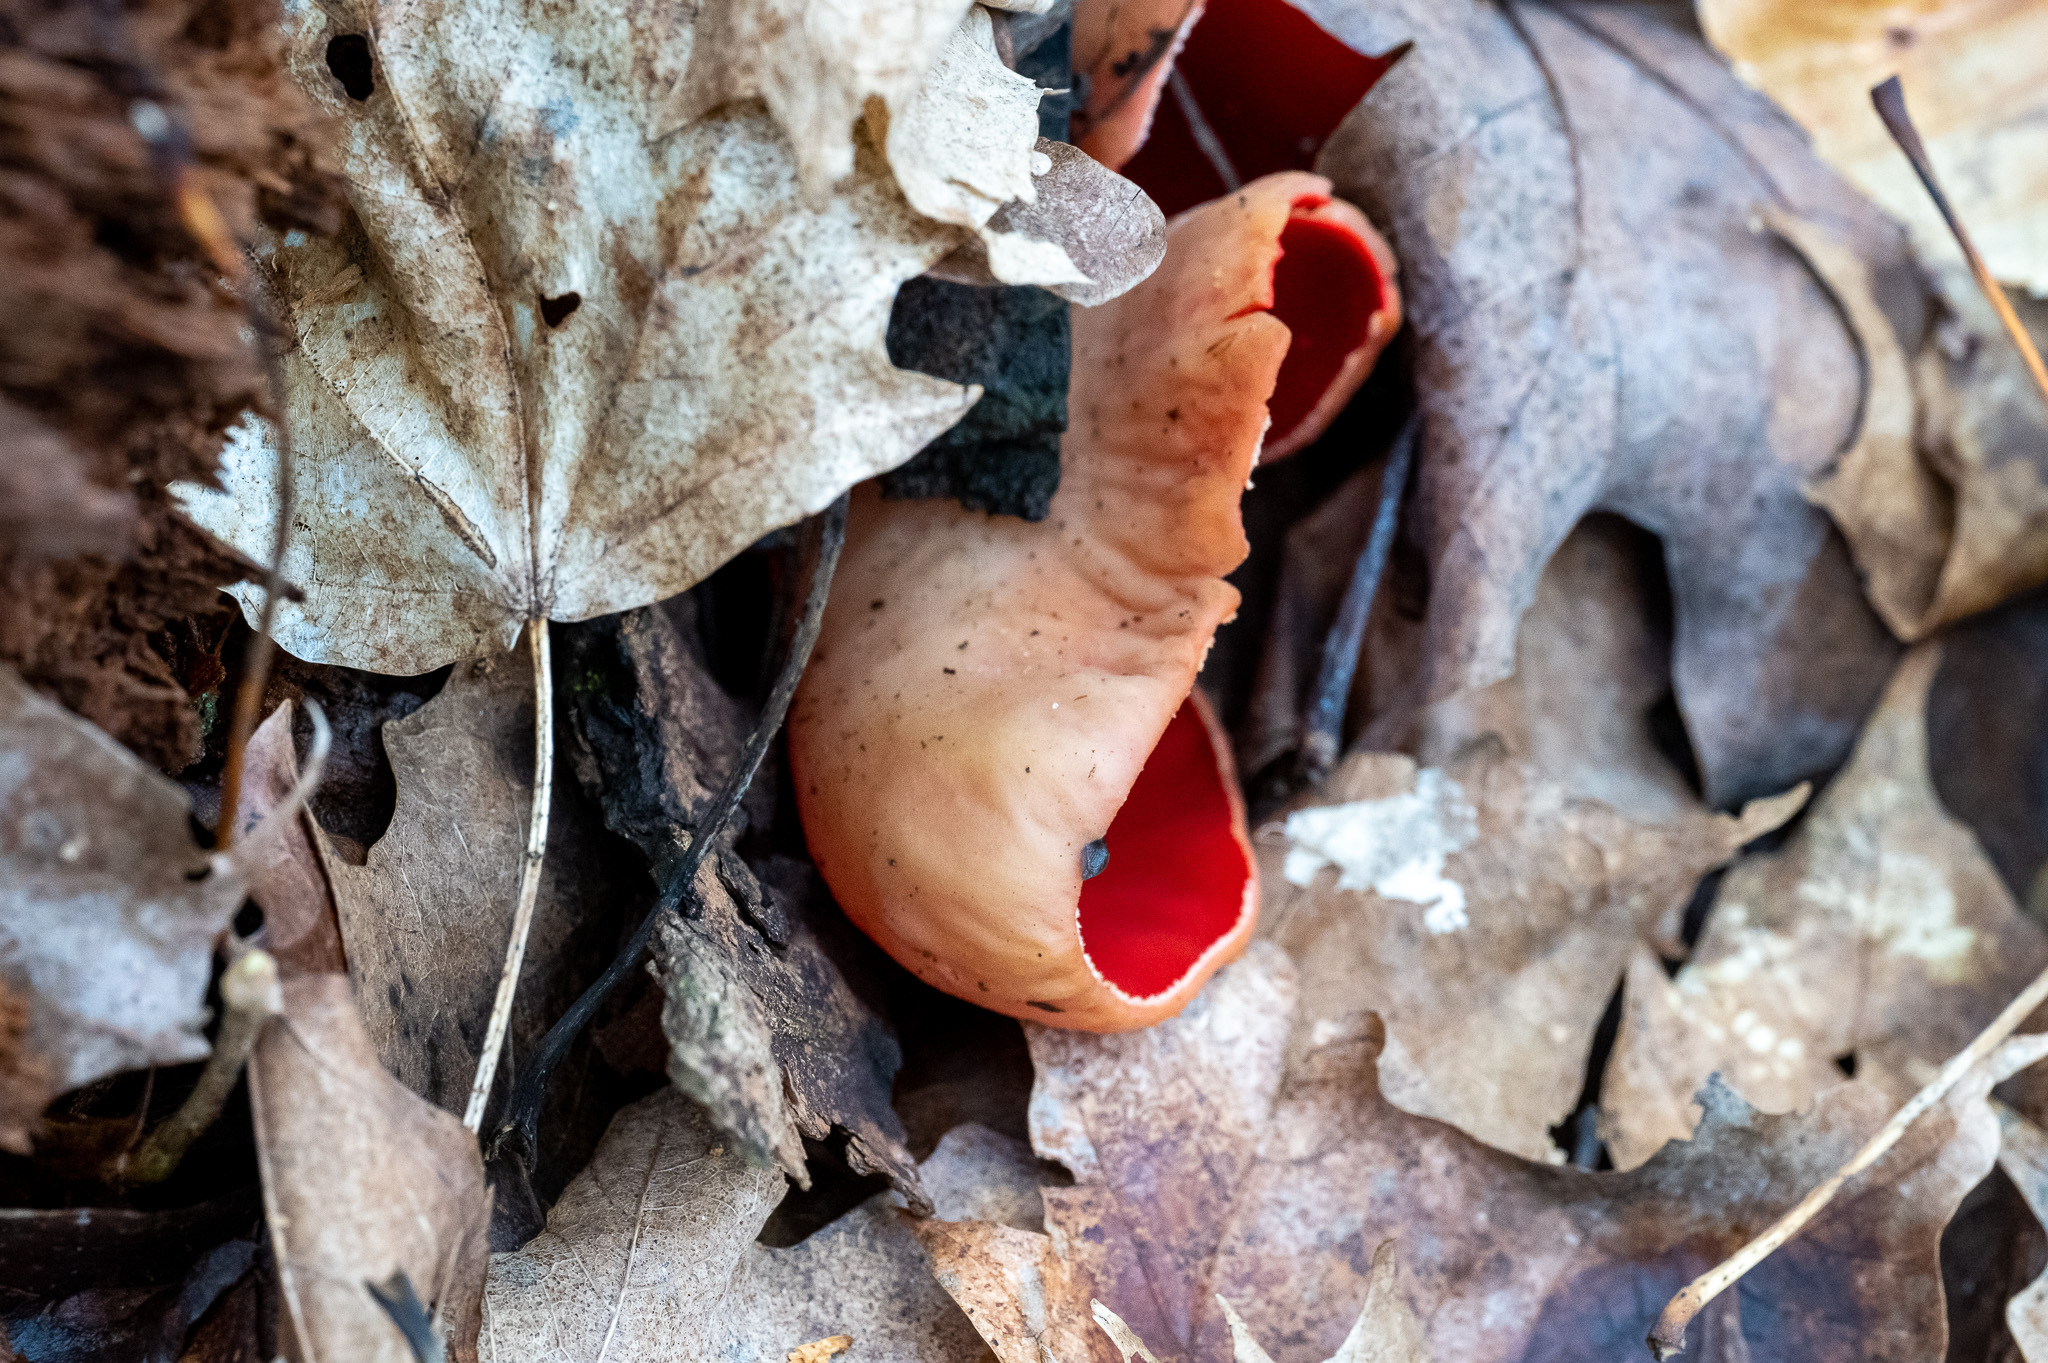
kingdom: Fungi
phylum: Ascomycota
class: Pezizomycetes
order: Pezizales
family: Sarcoscyphaceae
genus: Sarcoscypha
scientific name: Sarcoscypha austriaca
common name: Scarlet elfcup
